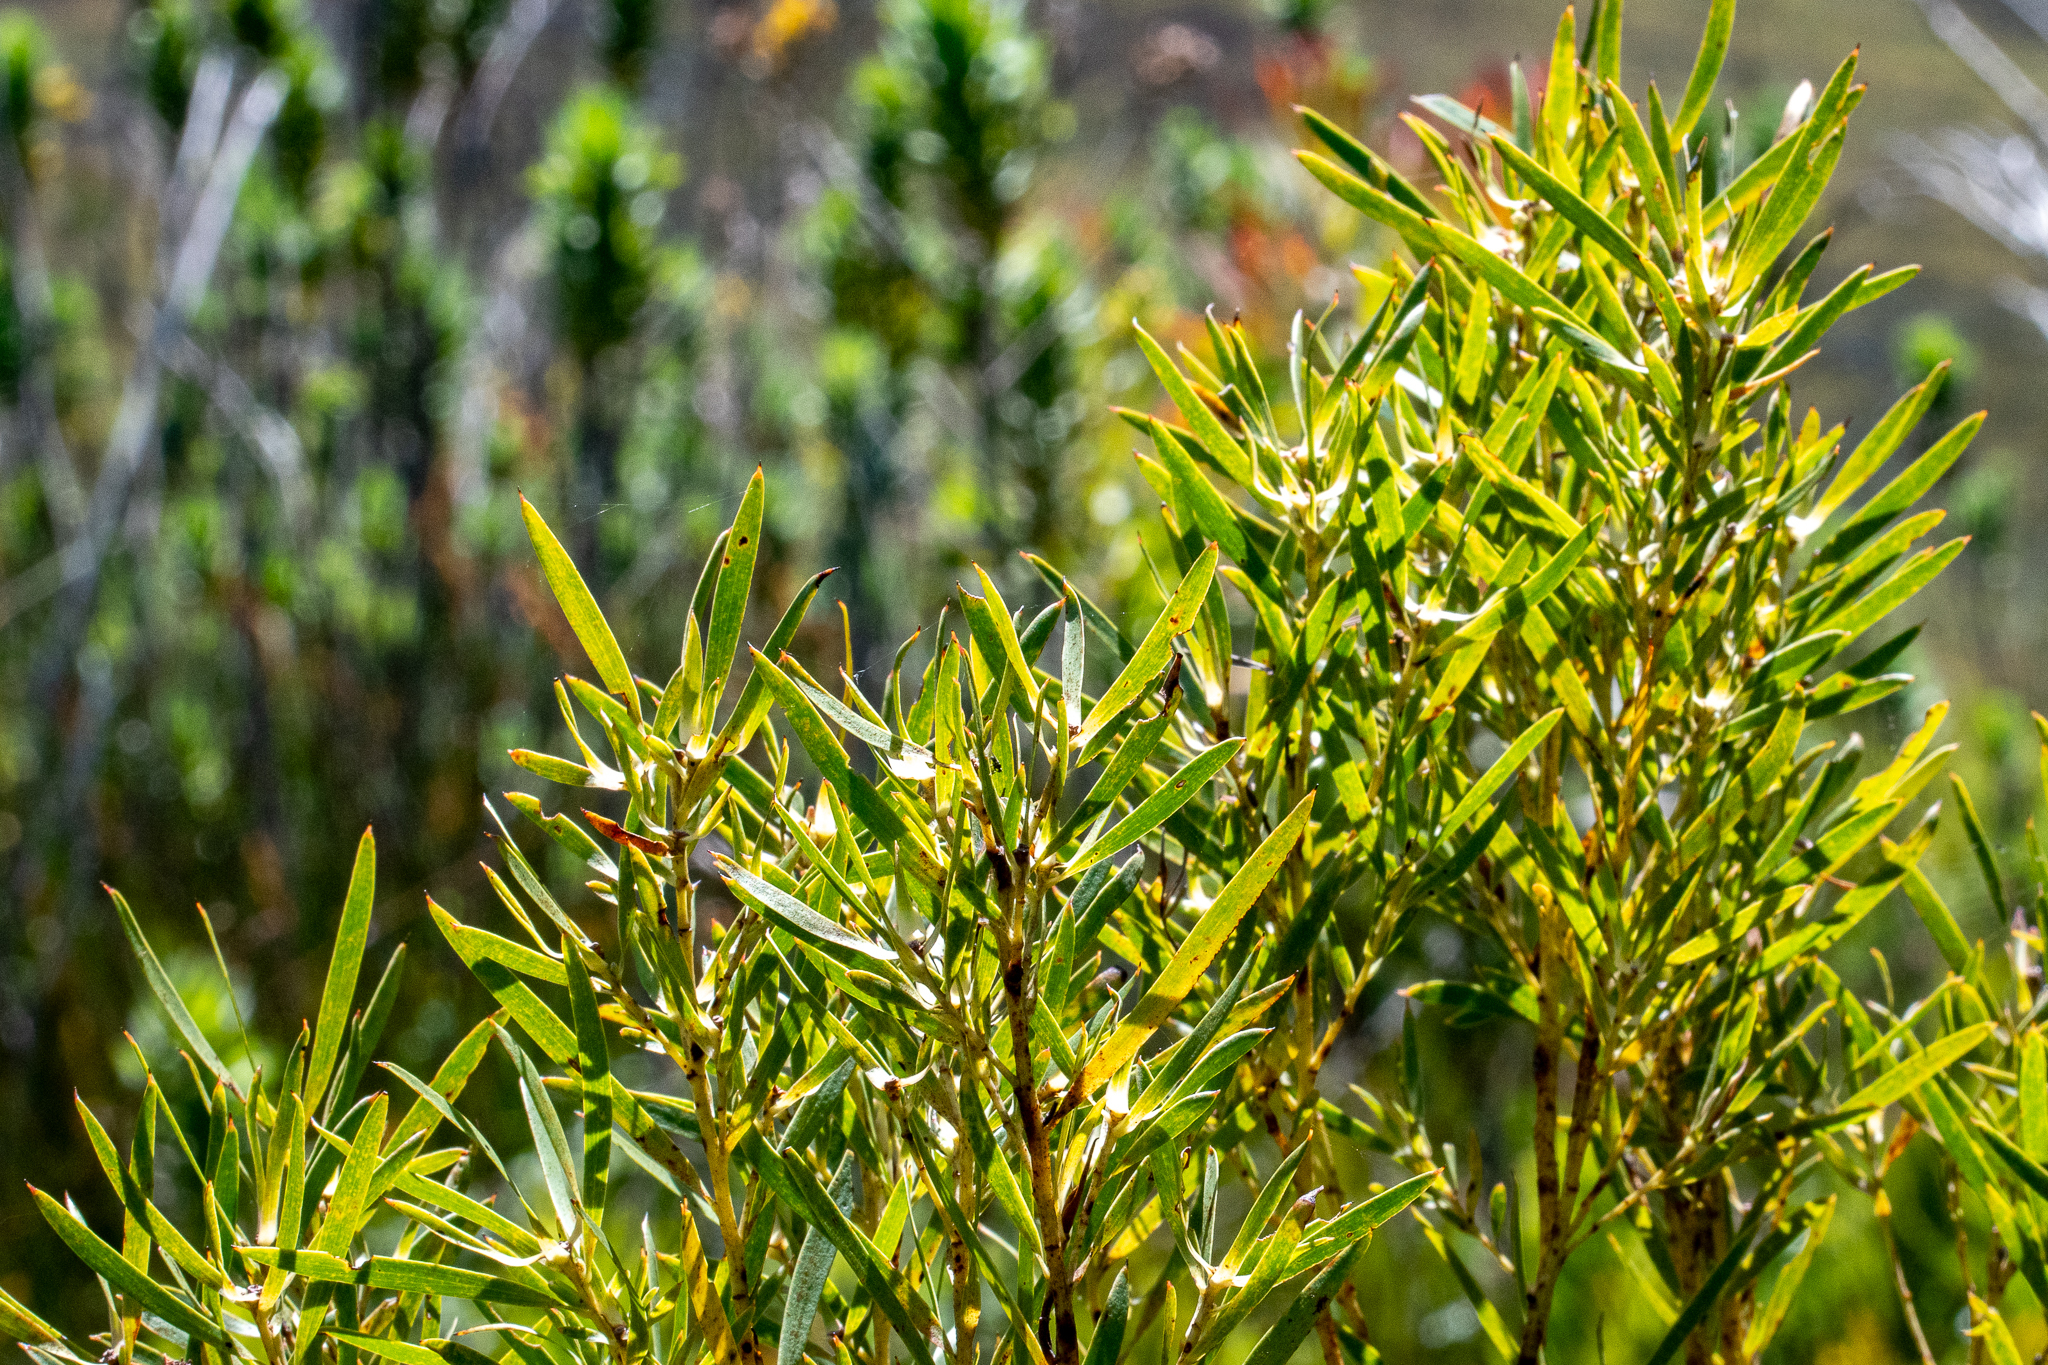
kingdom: Plantae
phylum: Tracheophyta
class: Magnoliopsida
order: Proteales
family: Proteaceae
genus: Leucadendron
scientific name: Leucadendron salicifolium
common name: Common stream conebush
